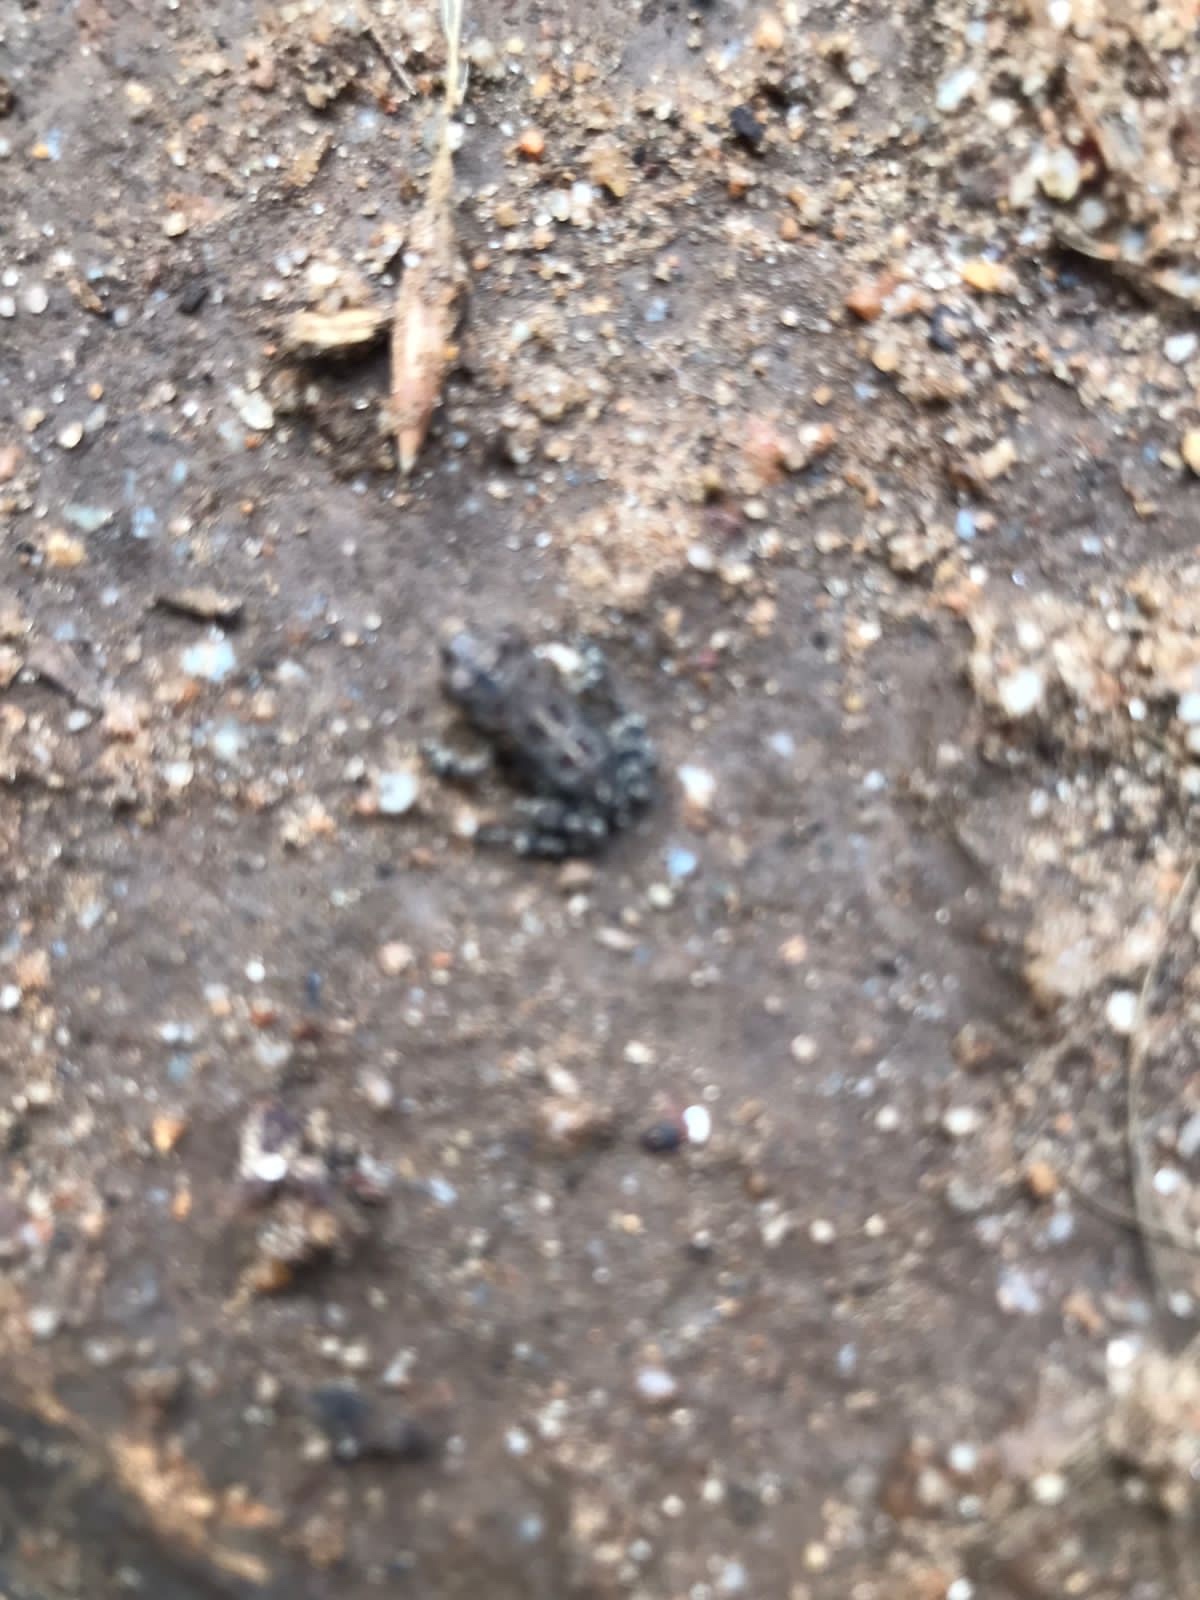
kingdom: Animalia
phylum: Chordata
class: Amphibia
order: Anura
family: Bufonidae
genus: Sclerophrys
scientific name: Sclerophrys pantherina
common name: Panther toad
